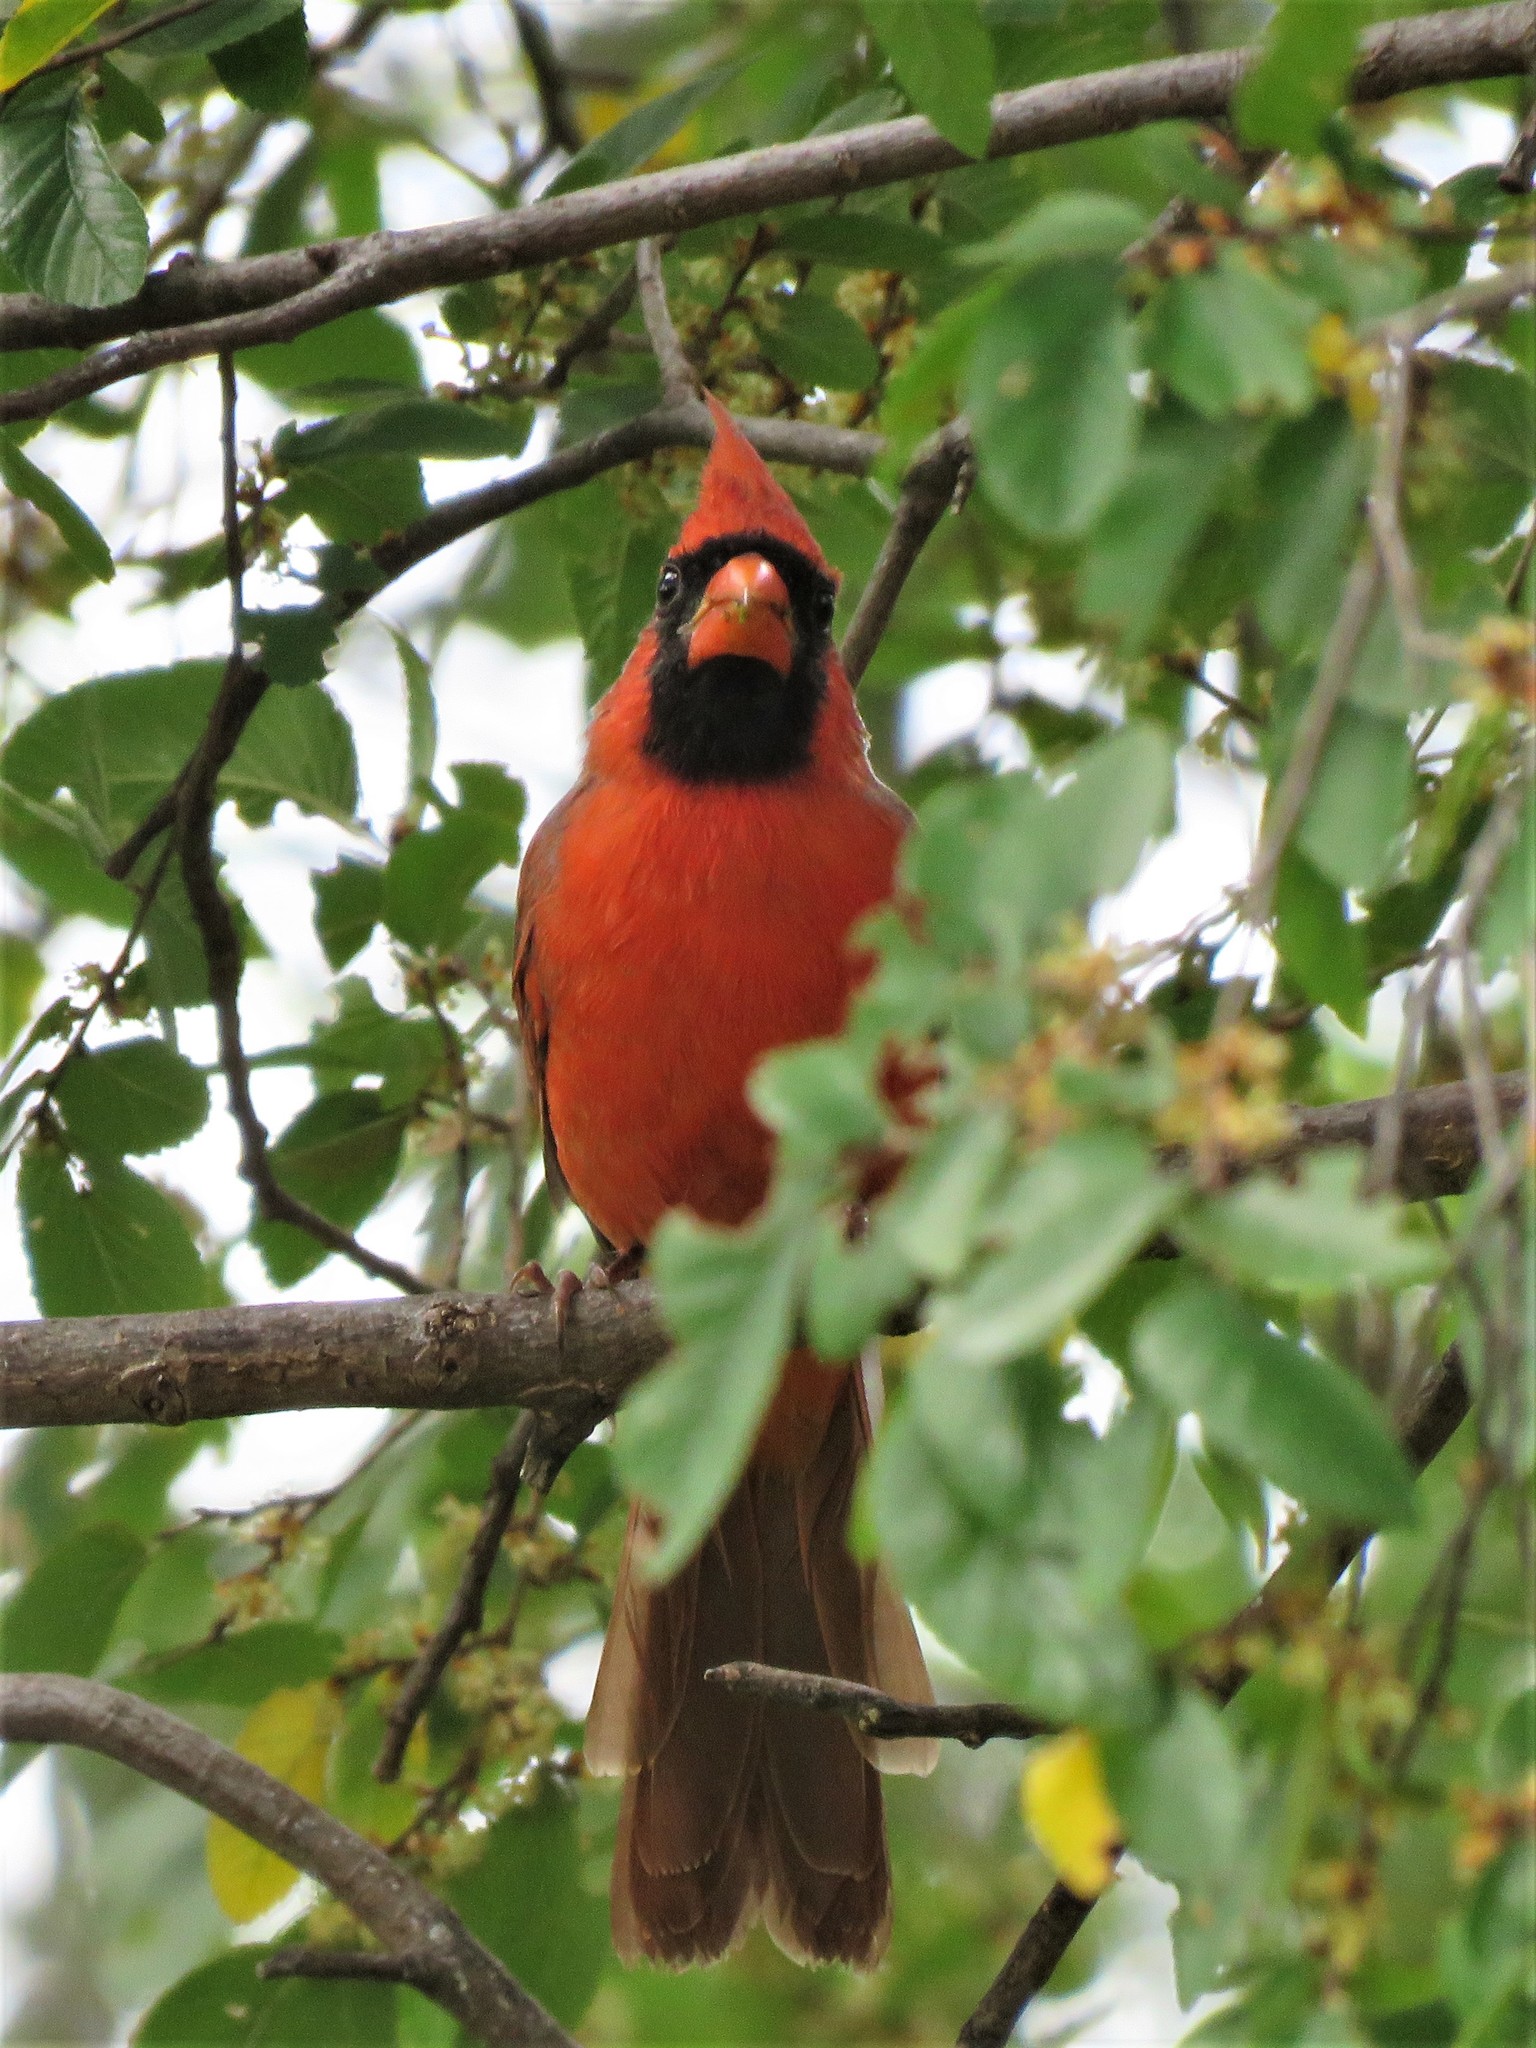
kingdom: Animalia
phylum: Chordata
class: Aves
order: Passeriformes
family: Cardinalidae
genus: Cardinalis
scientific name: Cardinalis cardinalis
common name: Northern cardinal
